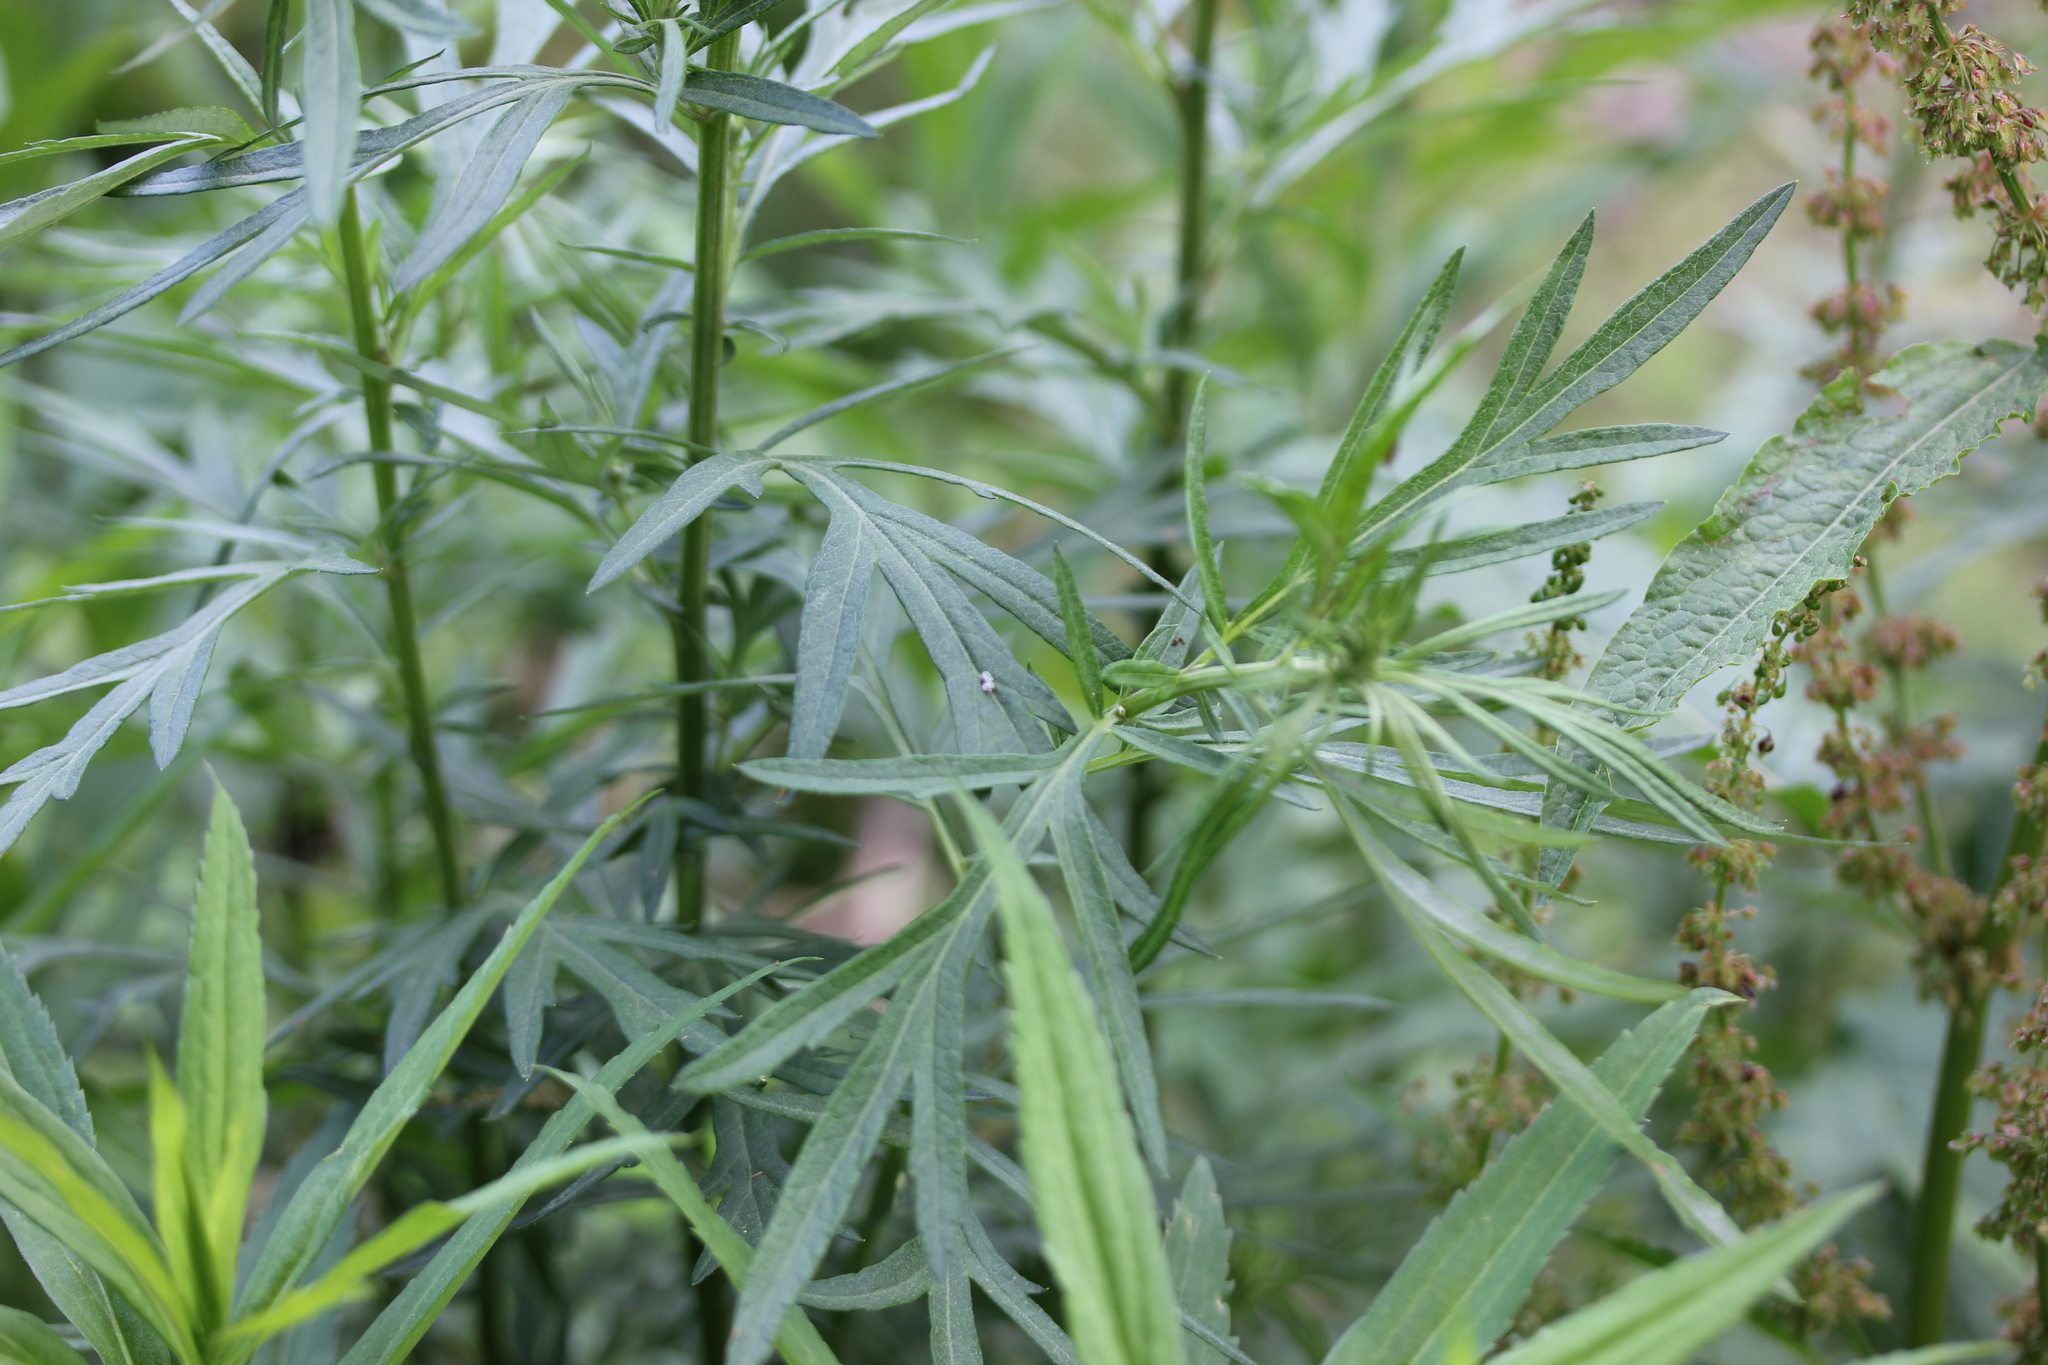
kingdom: Plantae
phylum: Tracheophyta
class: Magnoliopsida
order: Asterales
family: Asteraceae
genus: Artemisia
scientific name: Artemisia vulgaris
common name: Mugwort
